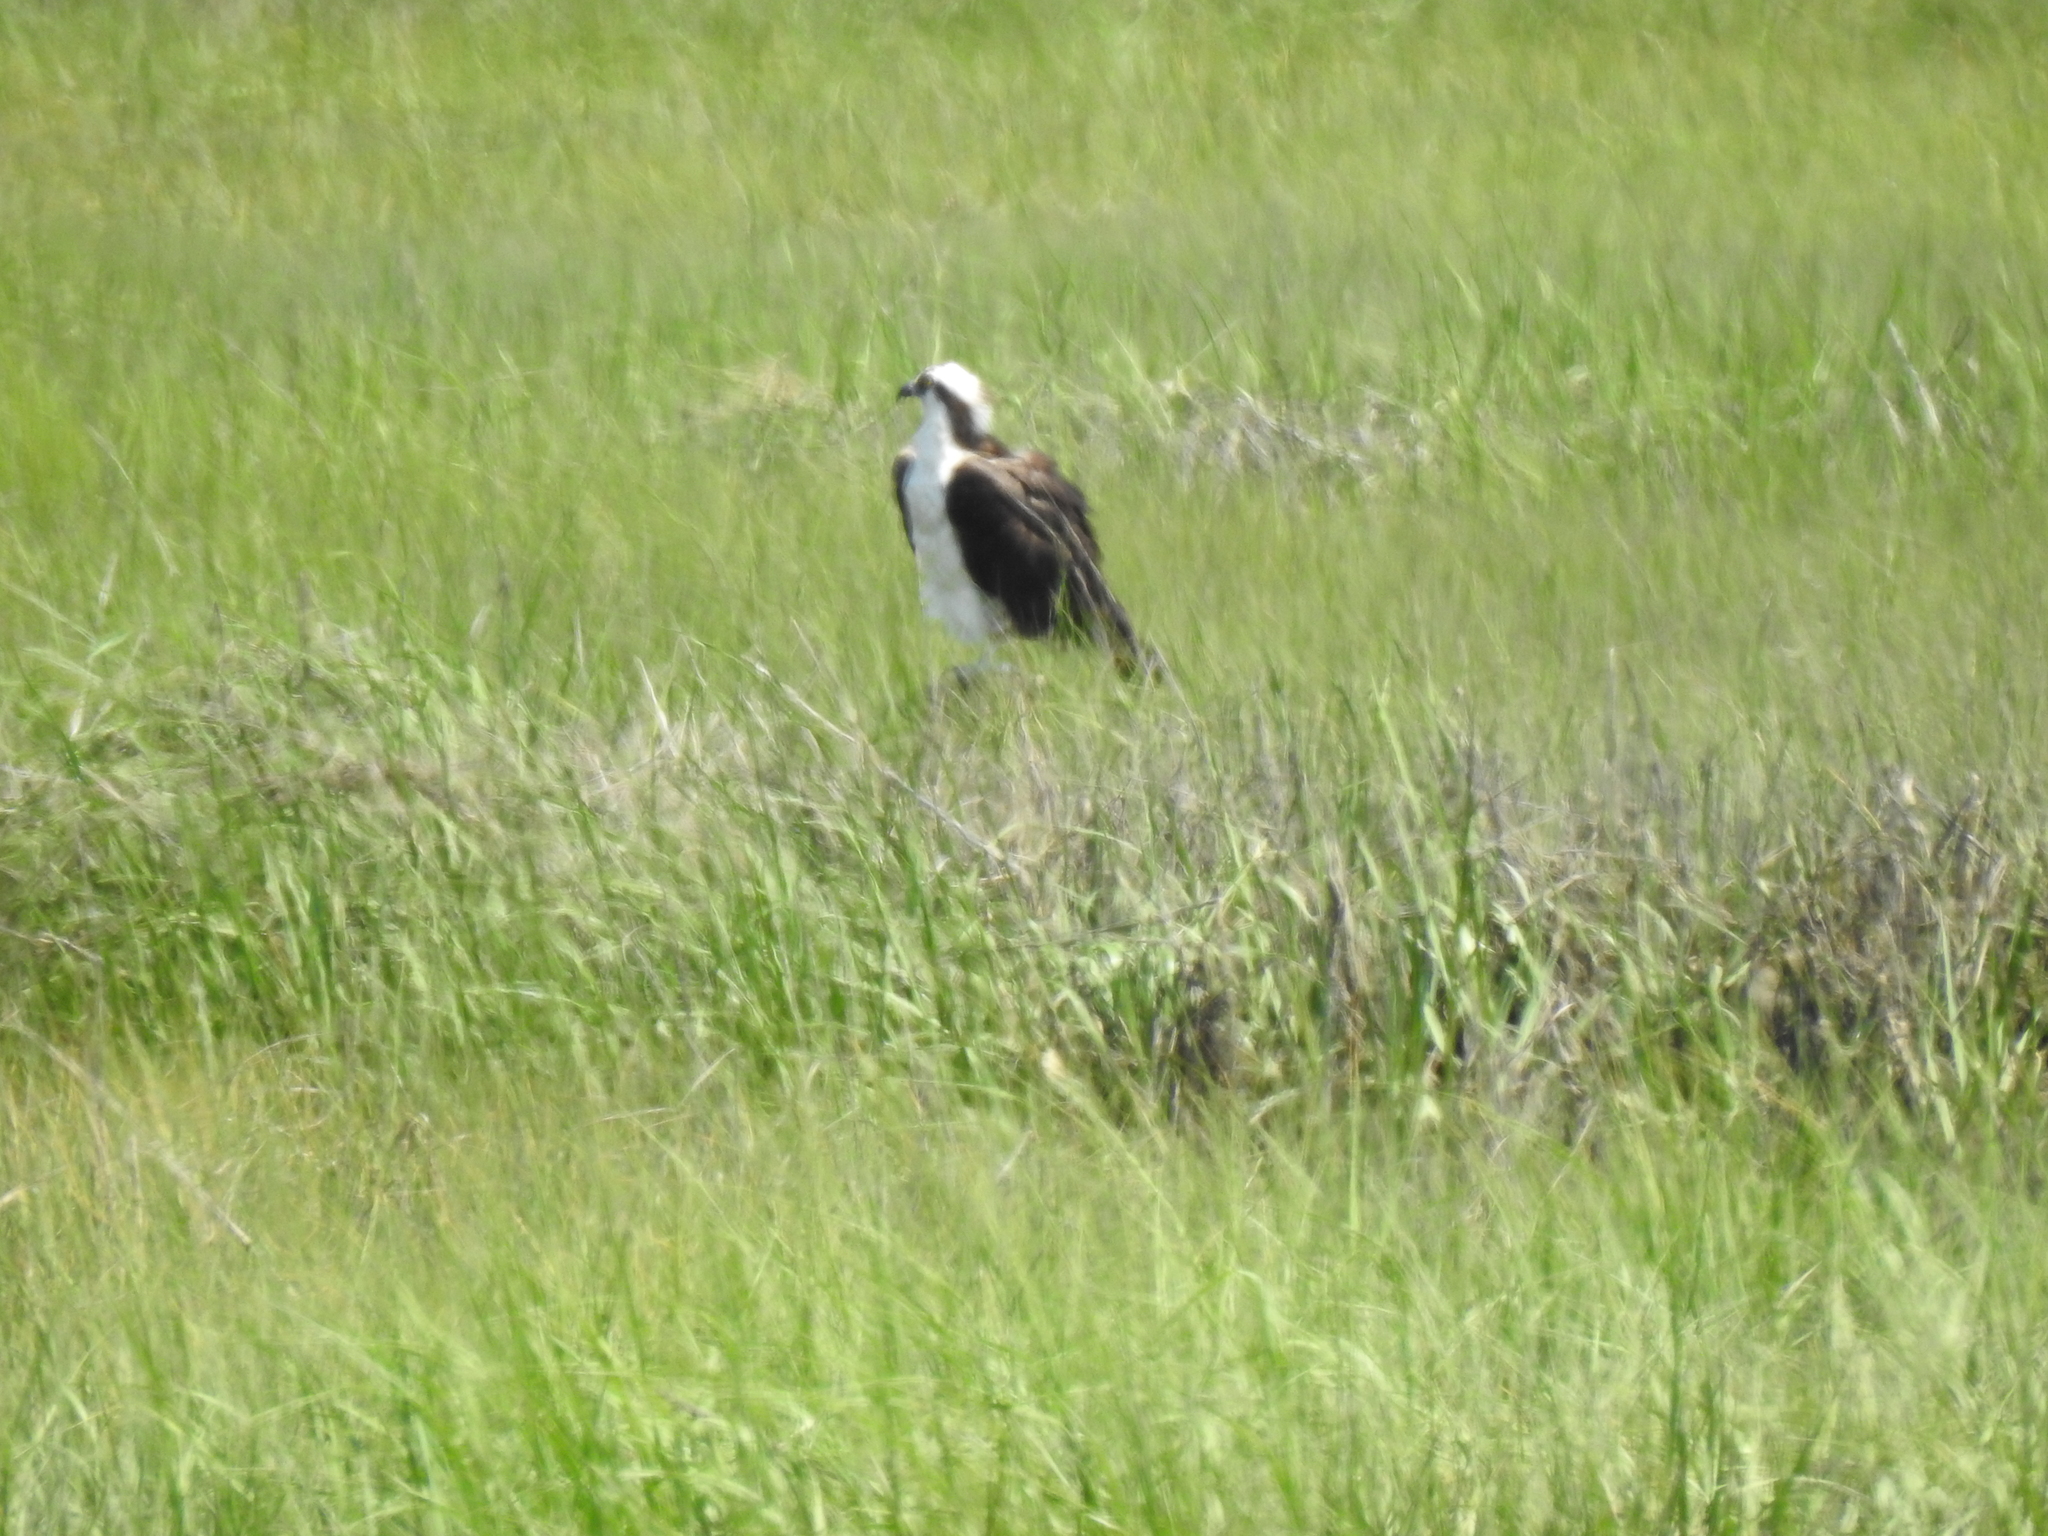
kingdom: Animalia
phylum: Chordata
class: Aves
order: Accipitriformes
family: Pandionidae
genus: Pandion
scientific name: Pandion haliaetus
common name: Osprey
